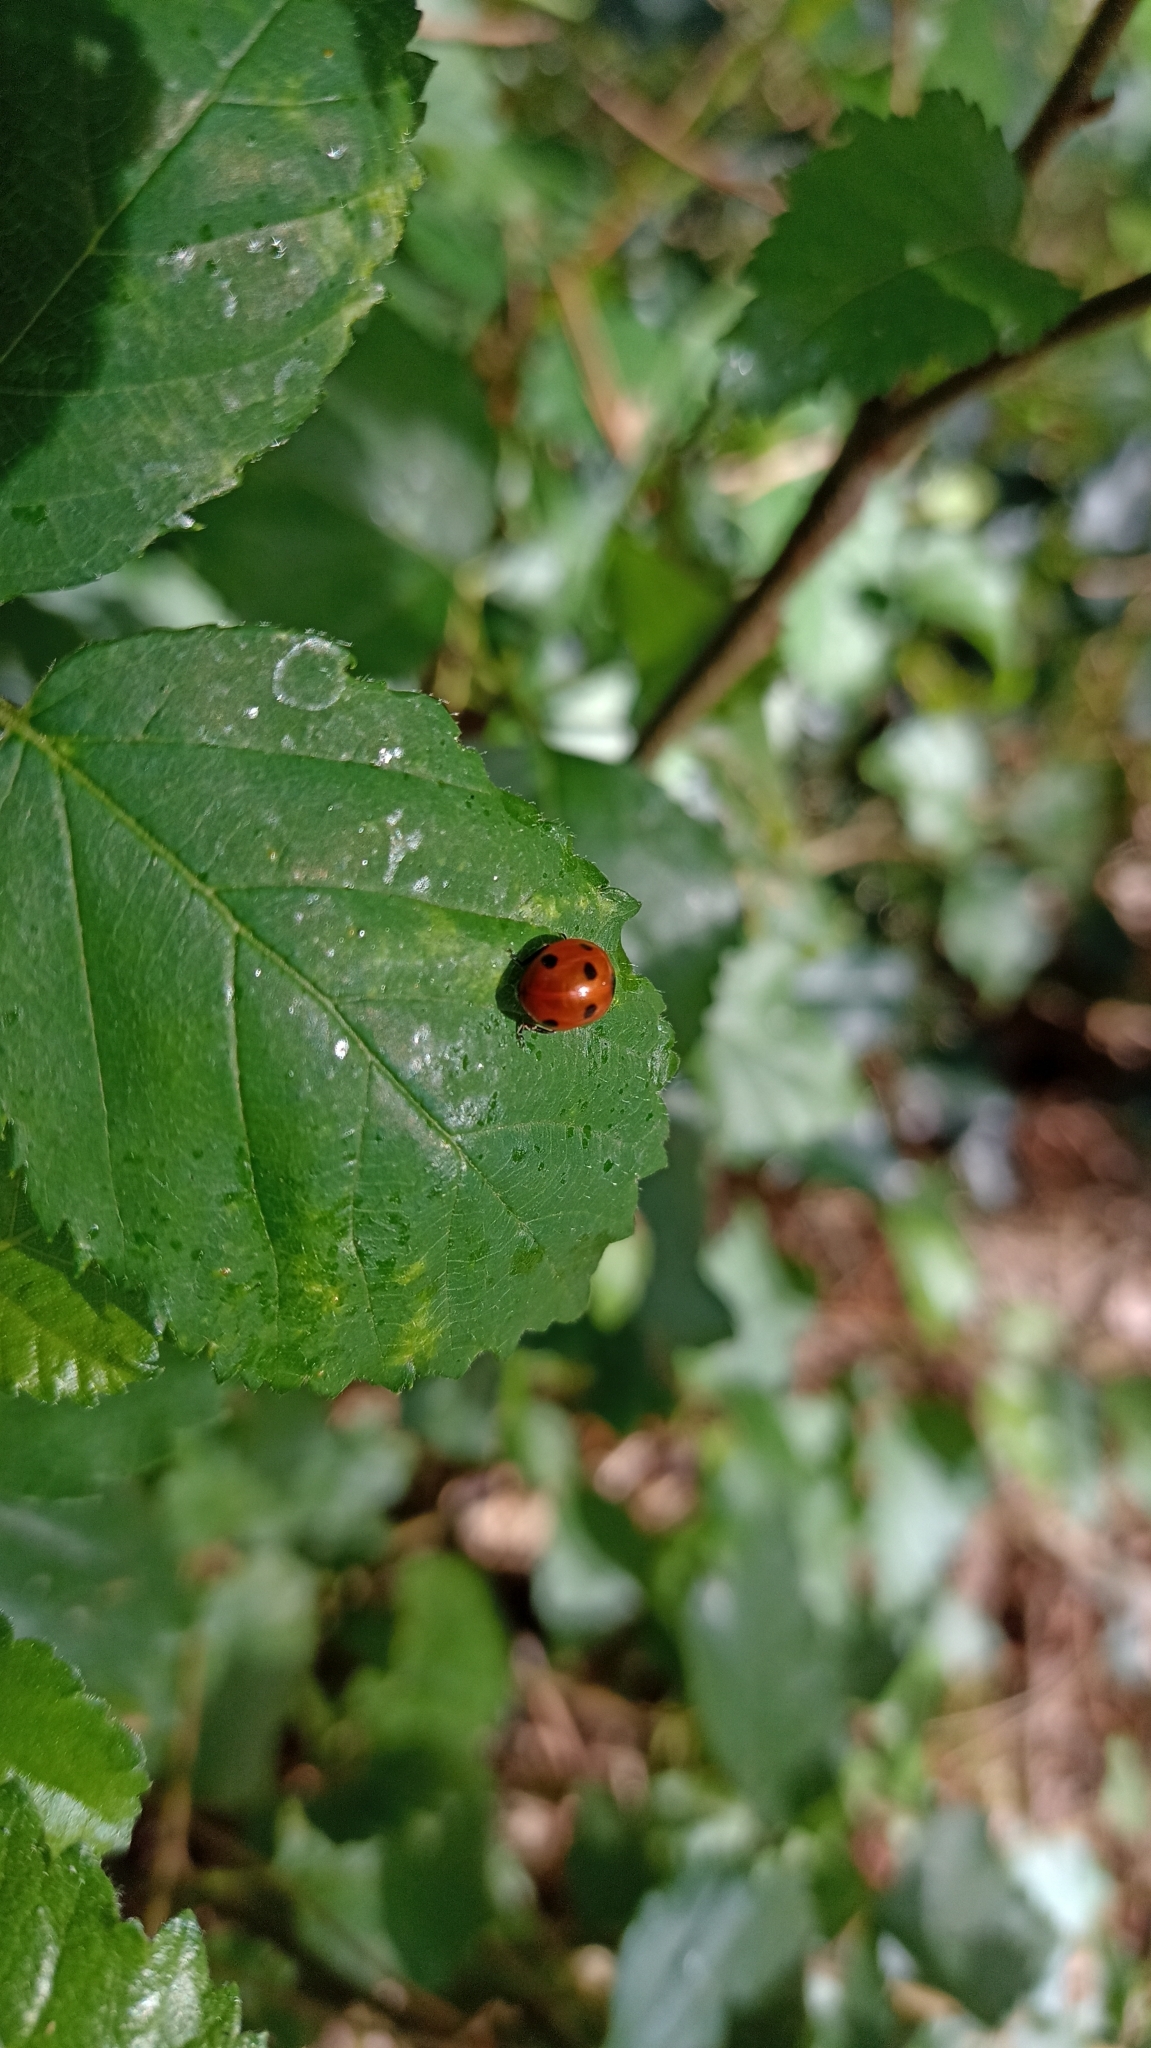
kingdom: Animalia
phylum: Arthropoda
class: Insecta
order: Coleoptera
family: Coccinellidae
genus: Coccinella
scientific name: Coccinella septempunctata
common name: Sevenspotted lady beetle
